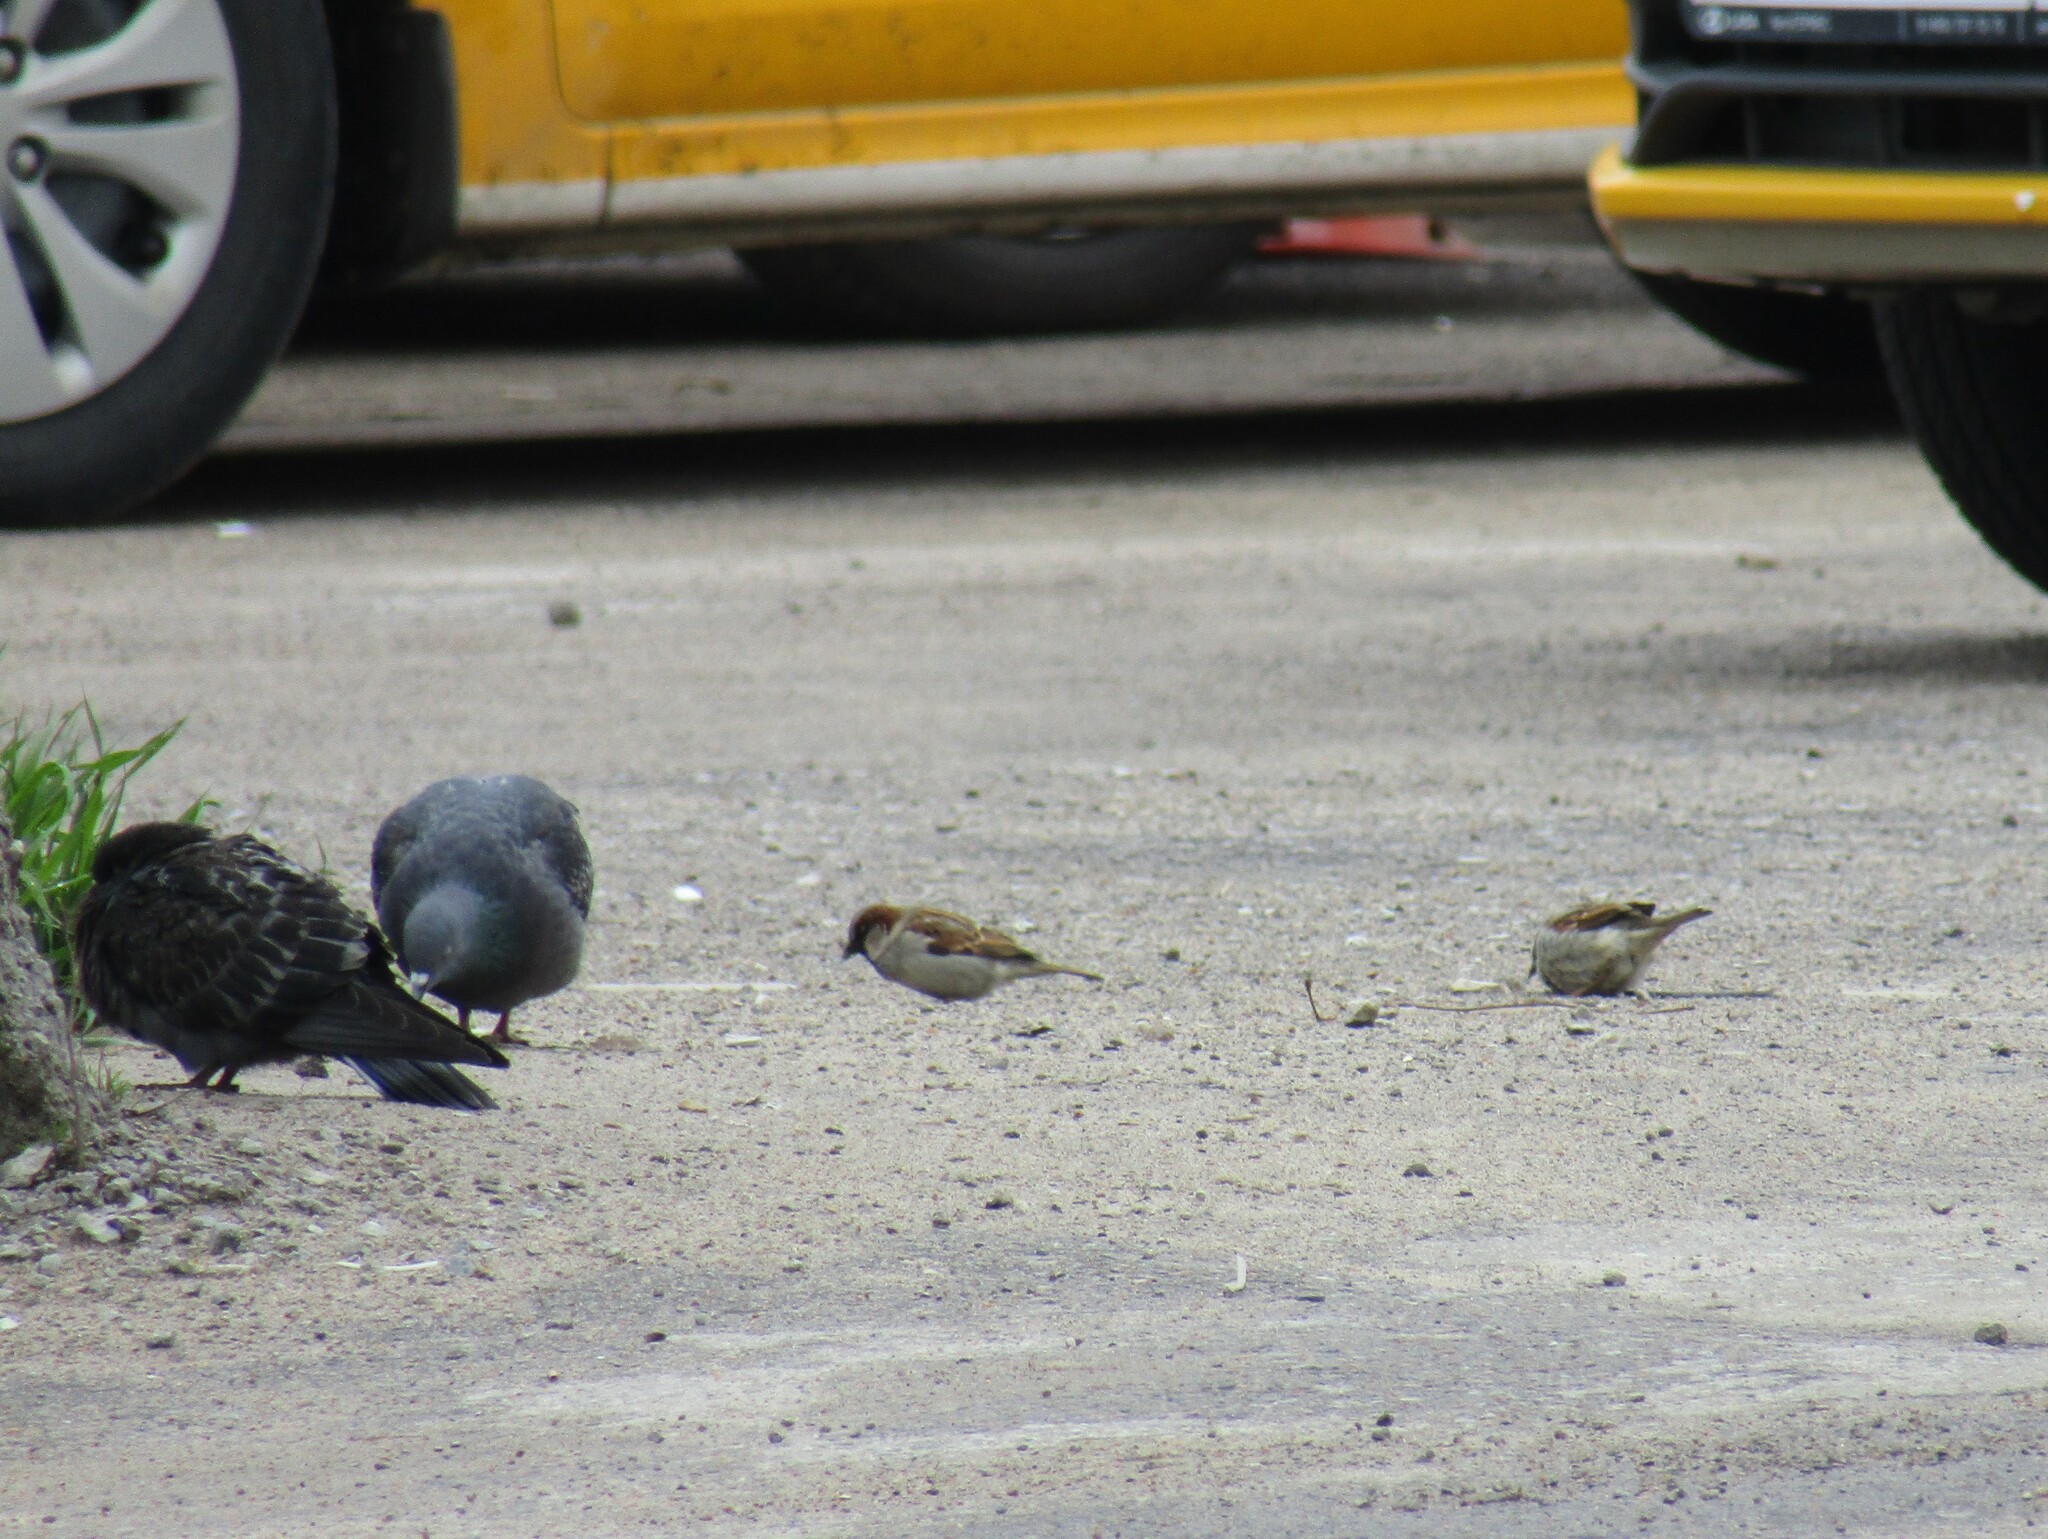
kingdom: Animalia
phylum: Chordata
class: Aves
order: Passeriformes
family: Passeridae
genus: Passer
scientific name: Passer domesticus
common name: House sparrow
